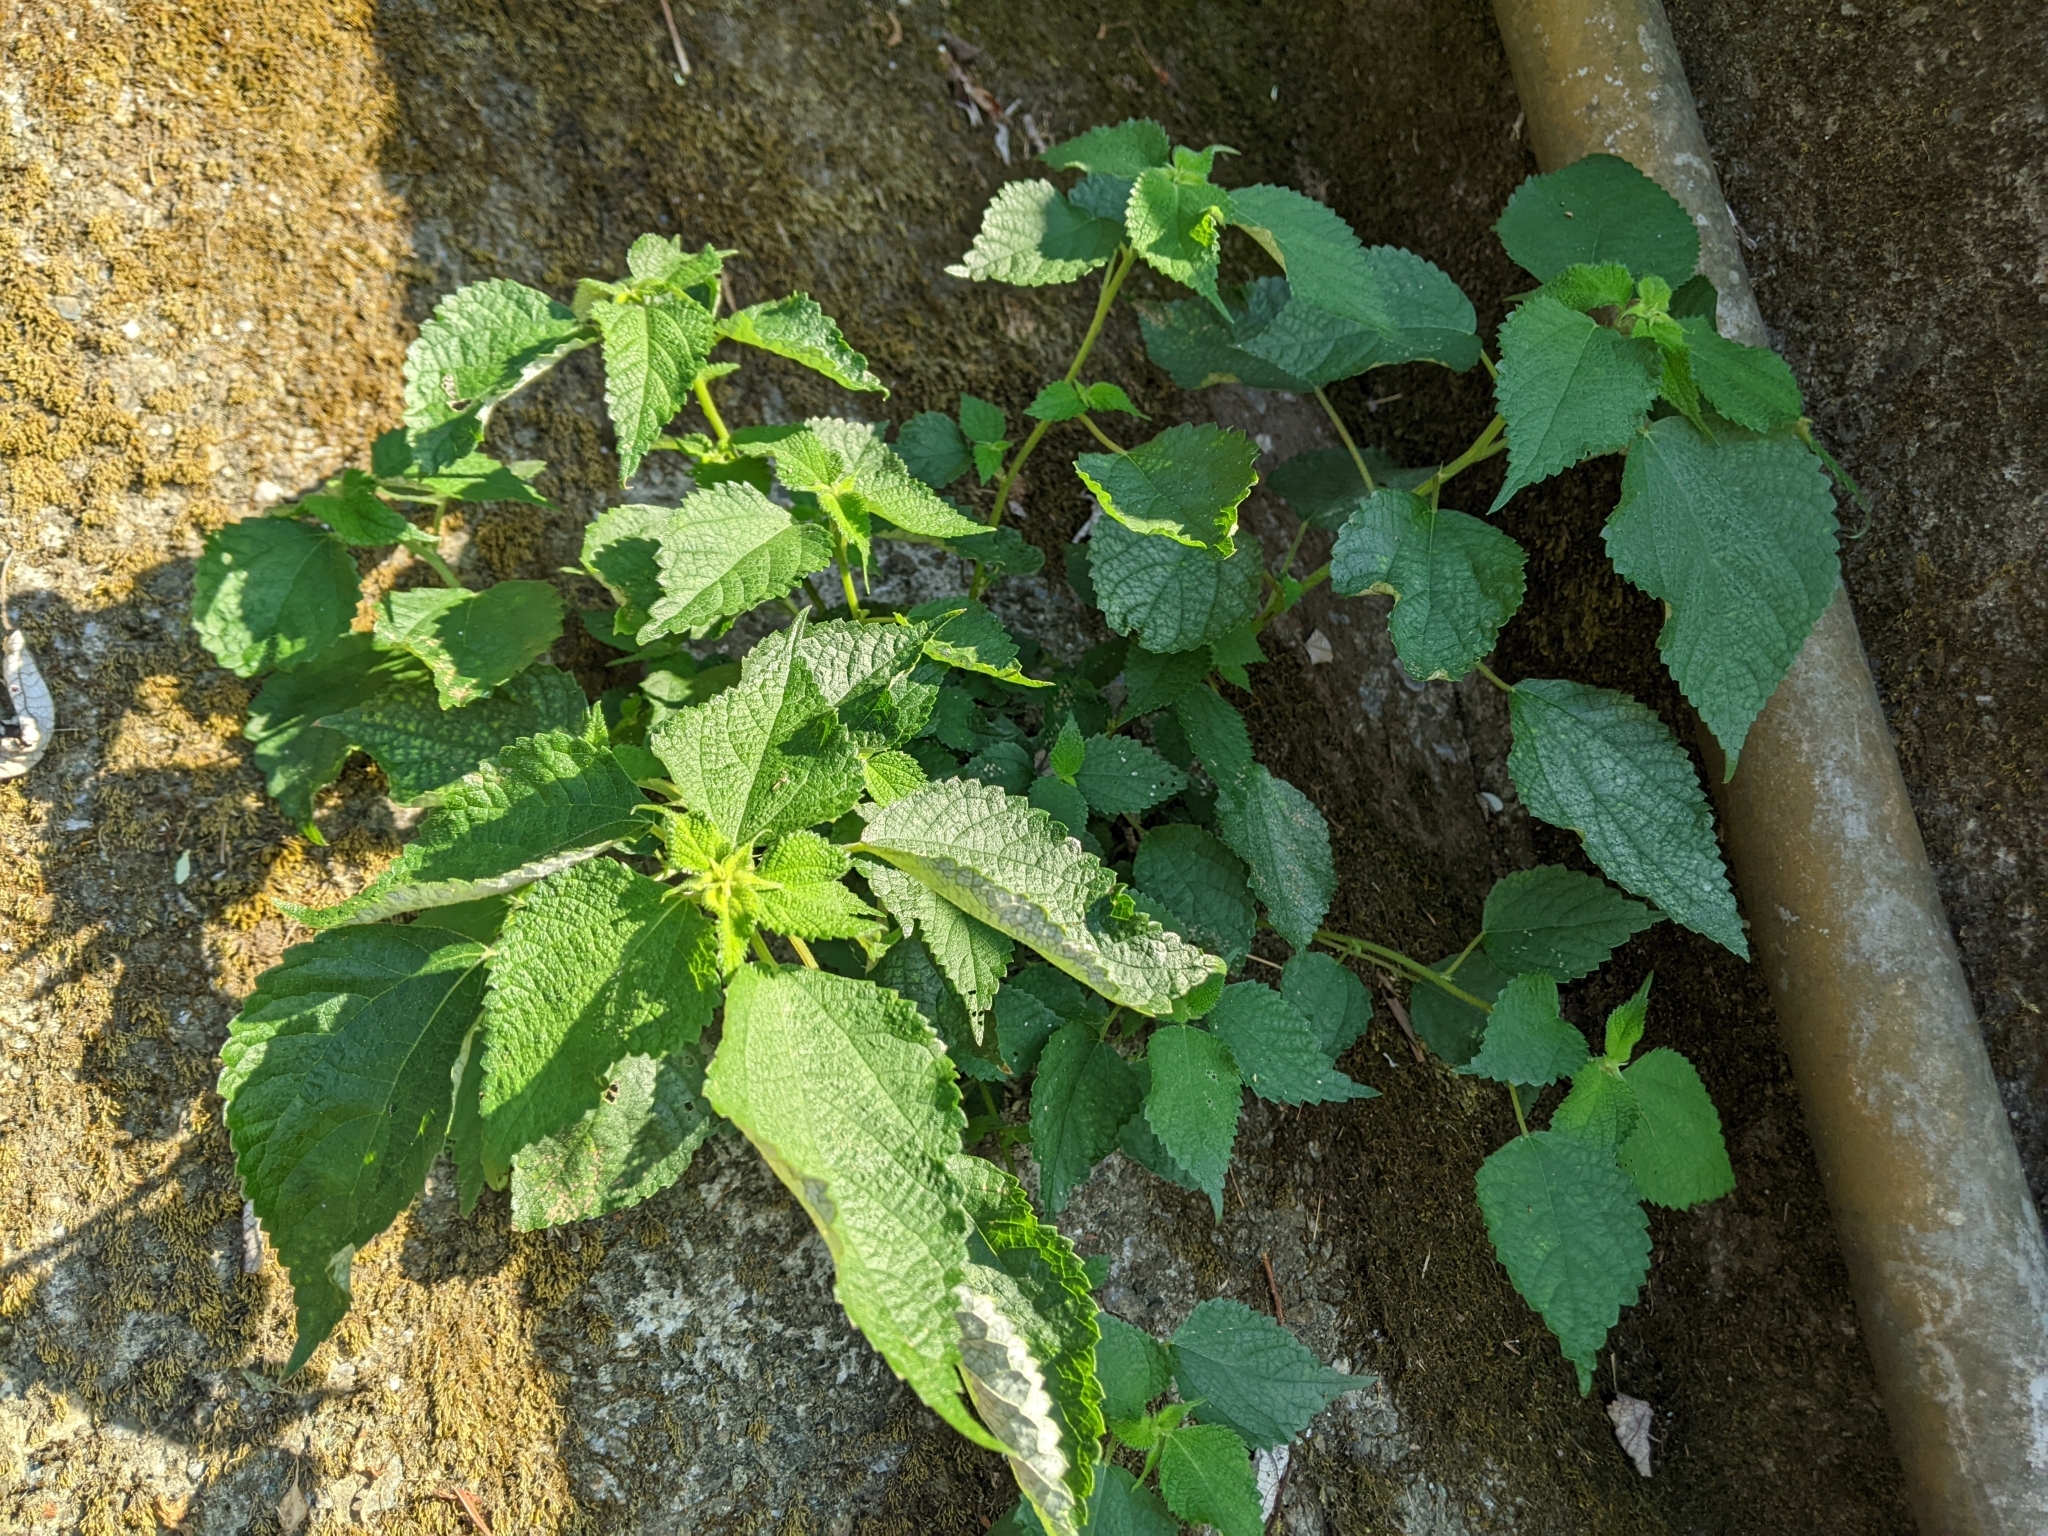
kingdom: Plantae
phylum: Tracheophyta
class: Magnoliopsida
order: Rosales
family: Urticaceae
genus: Boehmeria
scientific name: Boehmeria nivea
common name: Ramie chinese grass
